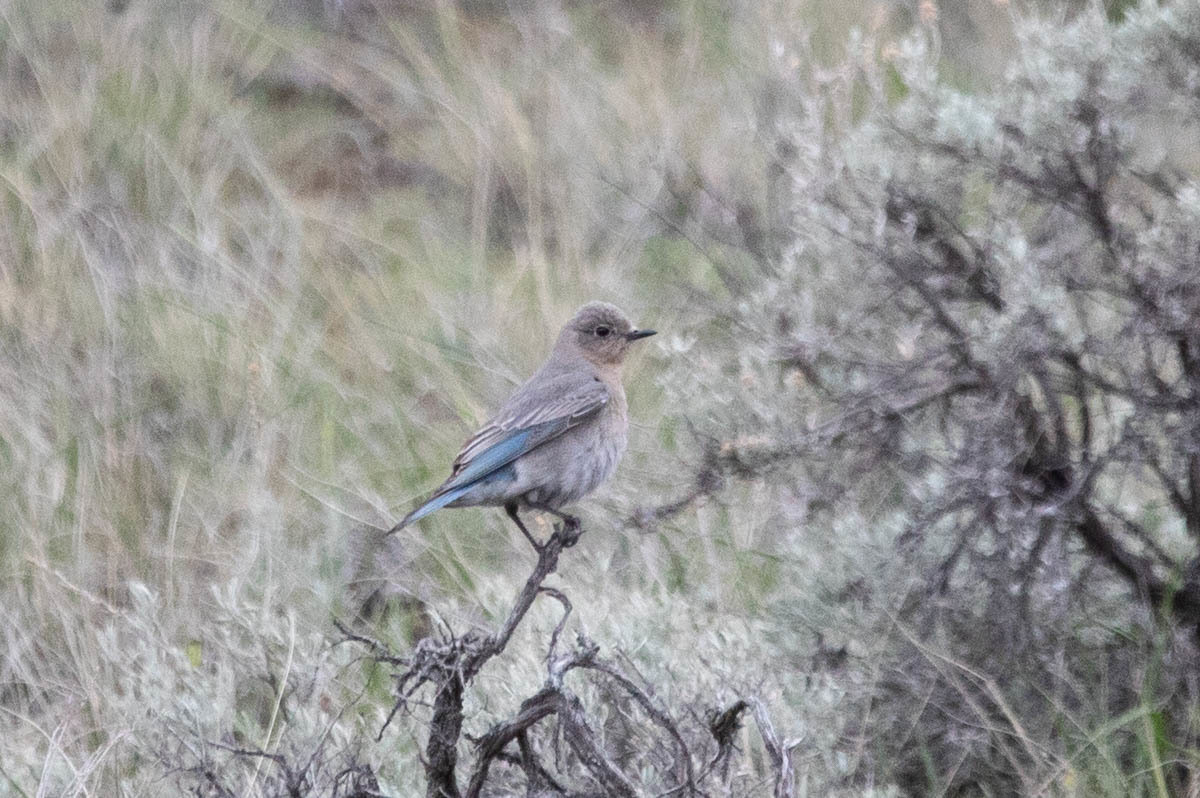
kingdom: Animalia
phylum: Chordata
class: Aves
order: Passeriformes
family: Turdidae
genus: Sialia
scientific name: Sialia currucoides
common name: Mountain bluebird
